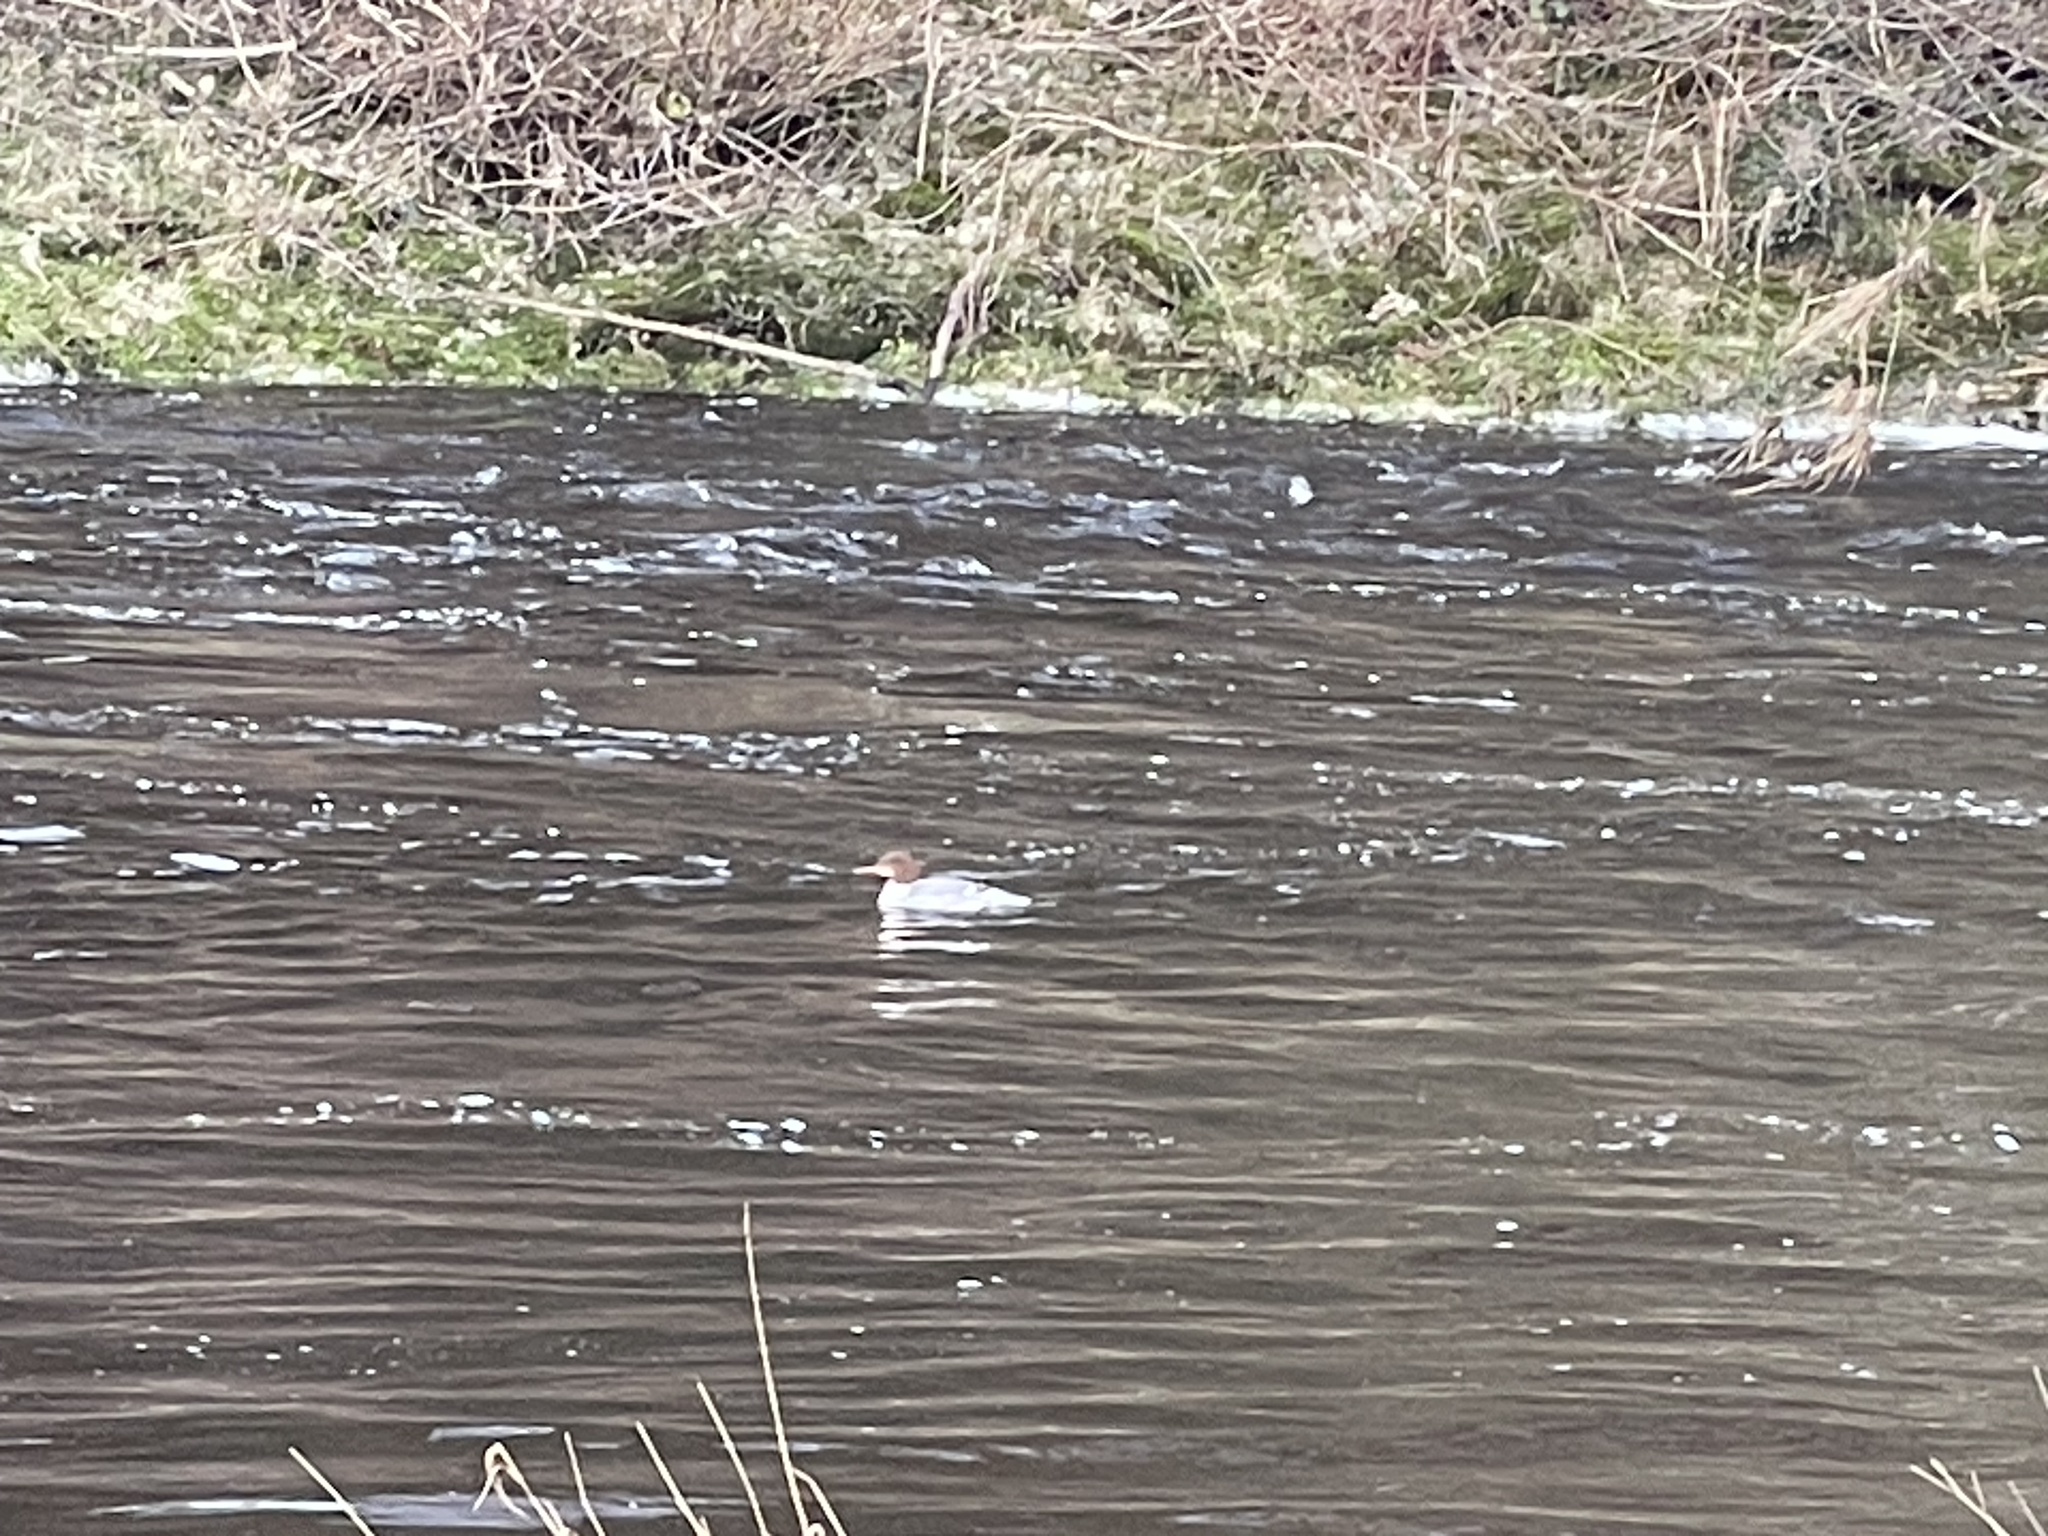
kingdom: Animalia
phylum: Chordata
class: Aves
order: Anseriformes
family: Anatidae
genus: Mergus
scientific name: Mergus merganser
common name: Common merganser
